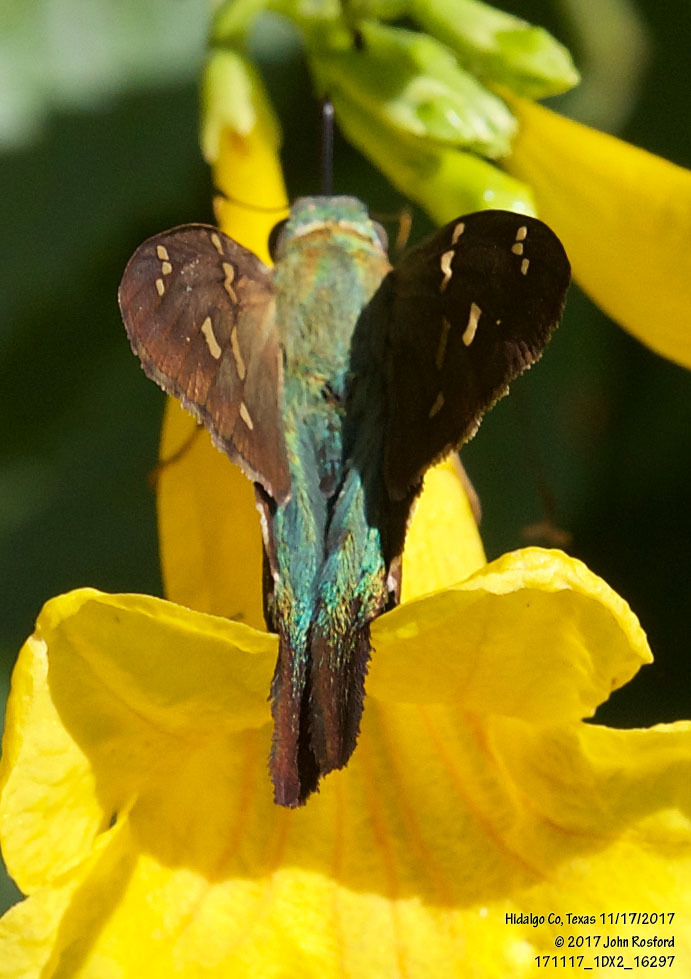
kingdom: Animalia
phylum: Arthropoda
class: Insecta
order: Lepidoptera
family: Hesperiidae
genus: Urbanus
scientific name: Urbanus proteus
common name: Long-tailed skipper
